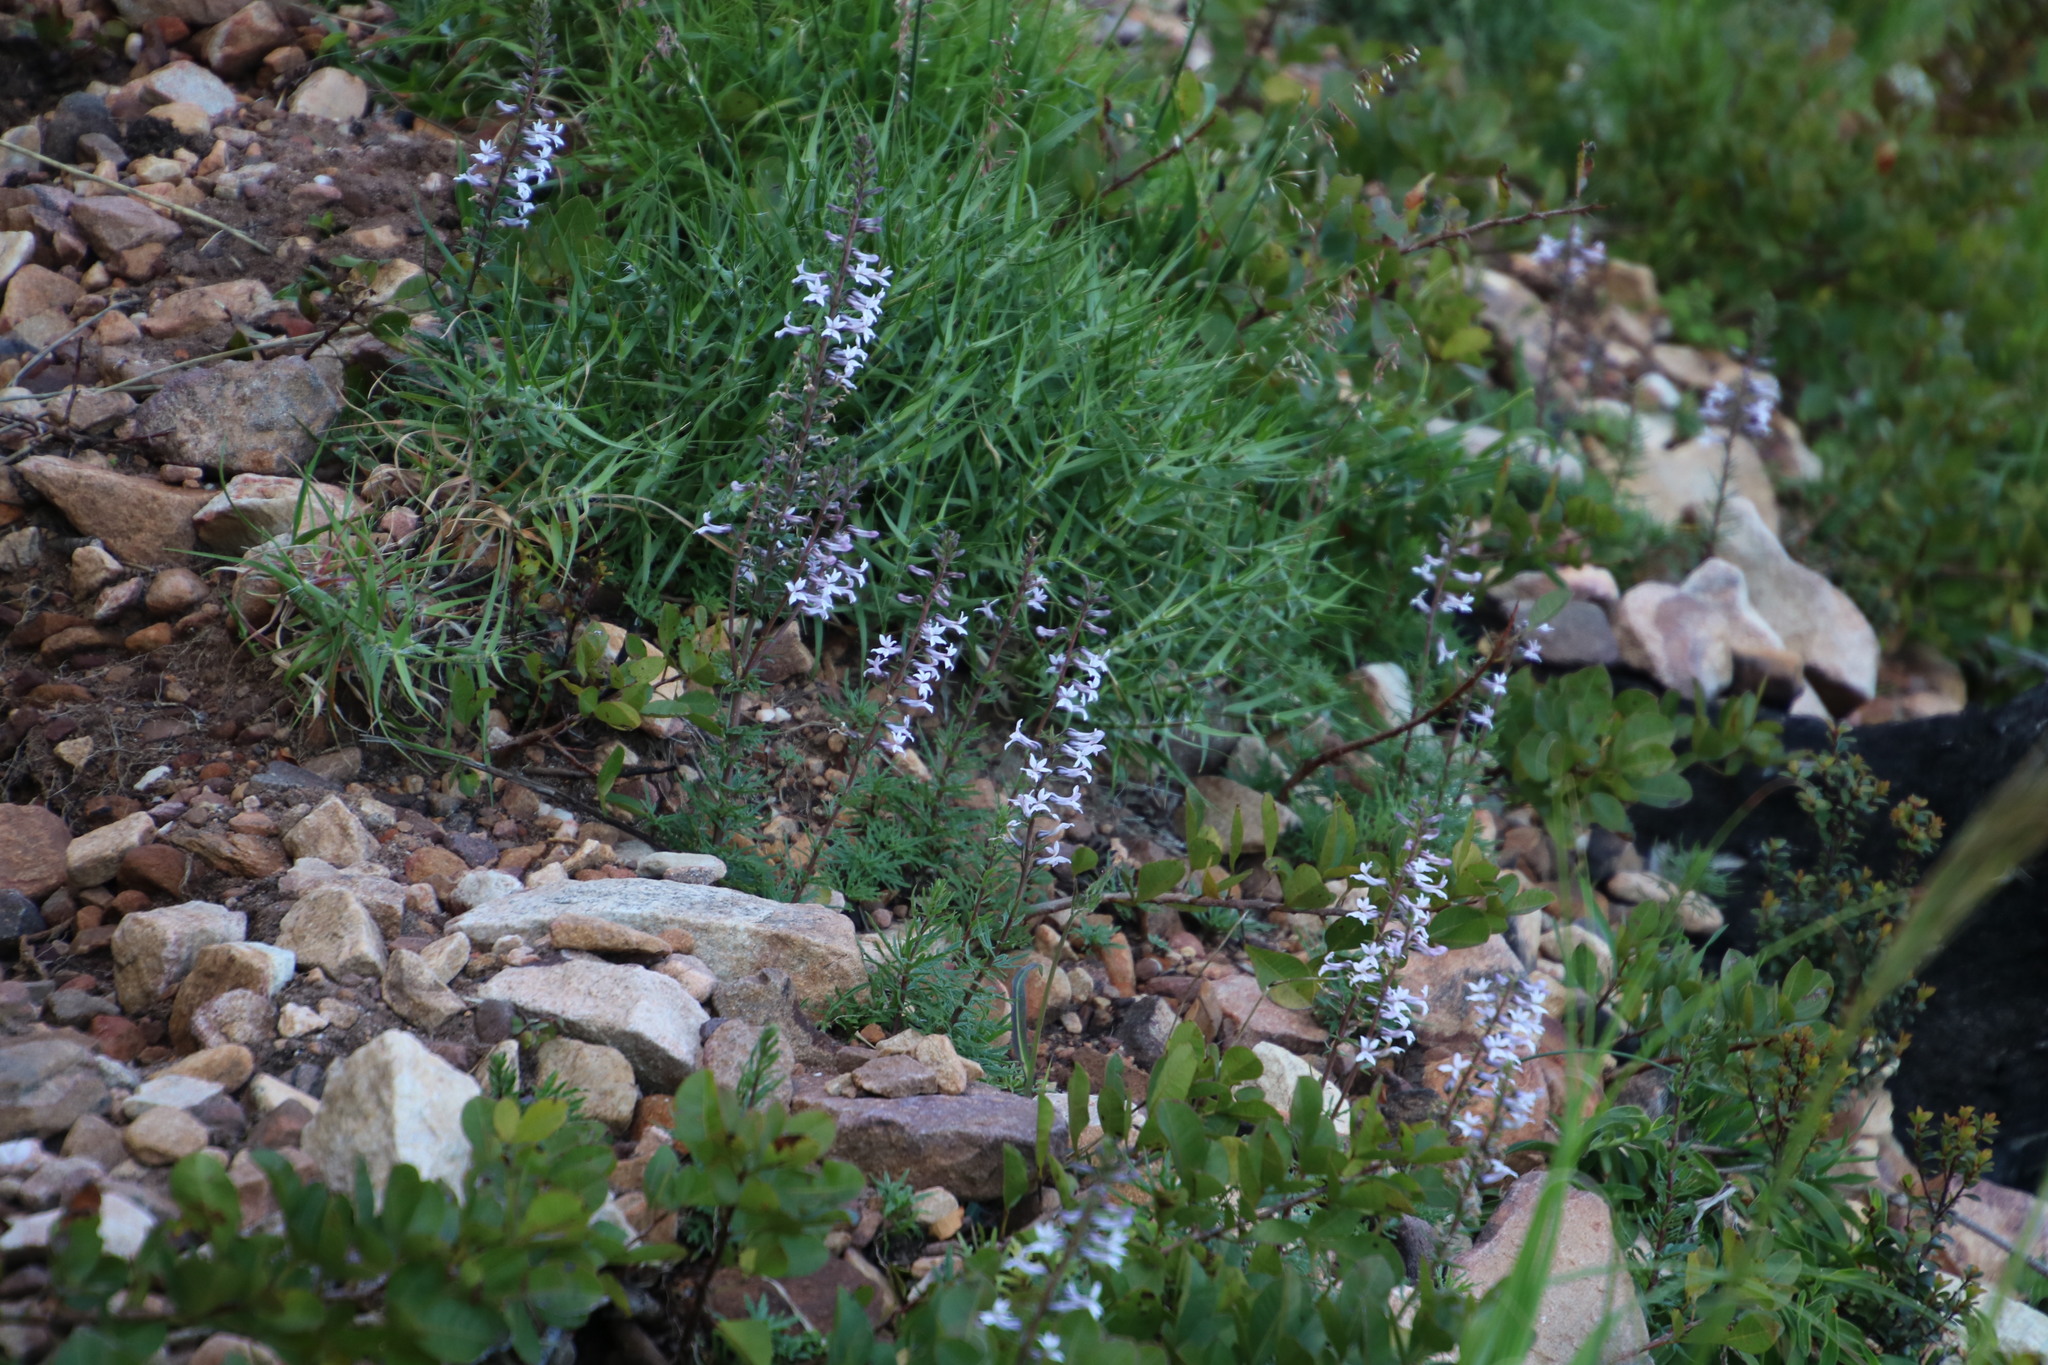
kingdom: Plantae
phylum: Tracheophyta
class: Magnoliopsida
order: Asterales
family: Campanulaceae
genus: Cyphia
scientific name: Cyphia bulbosa
